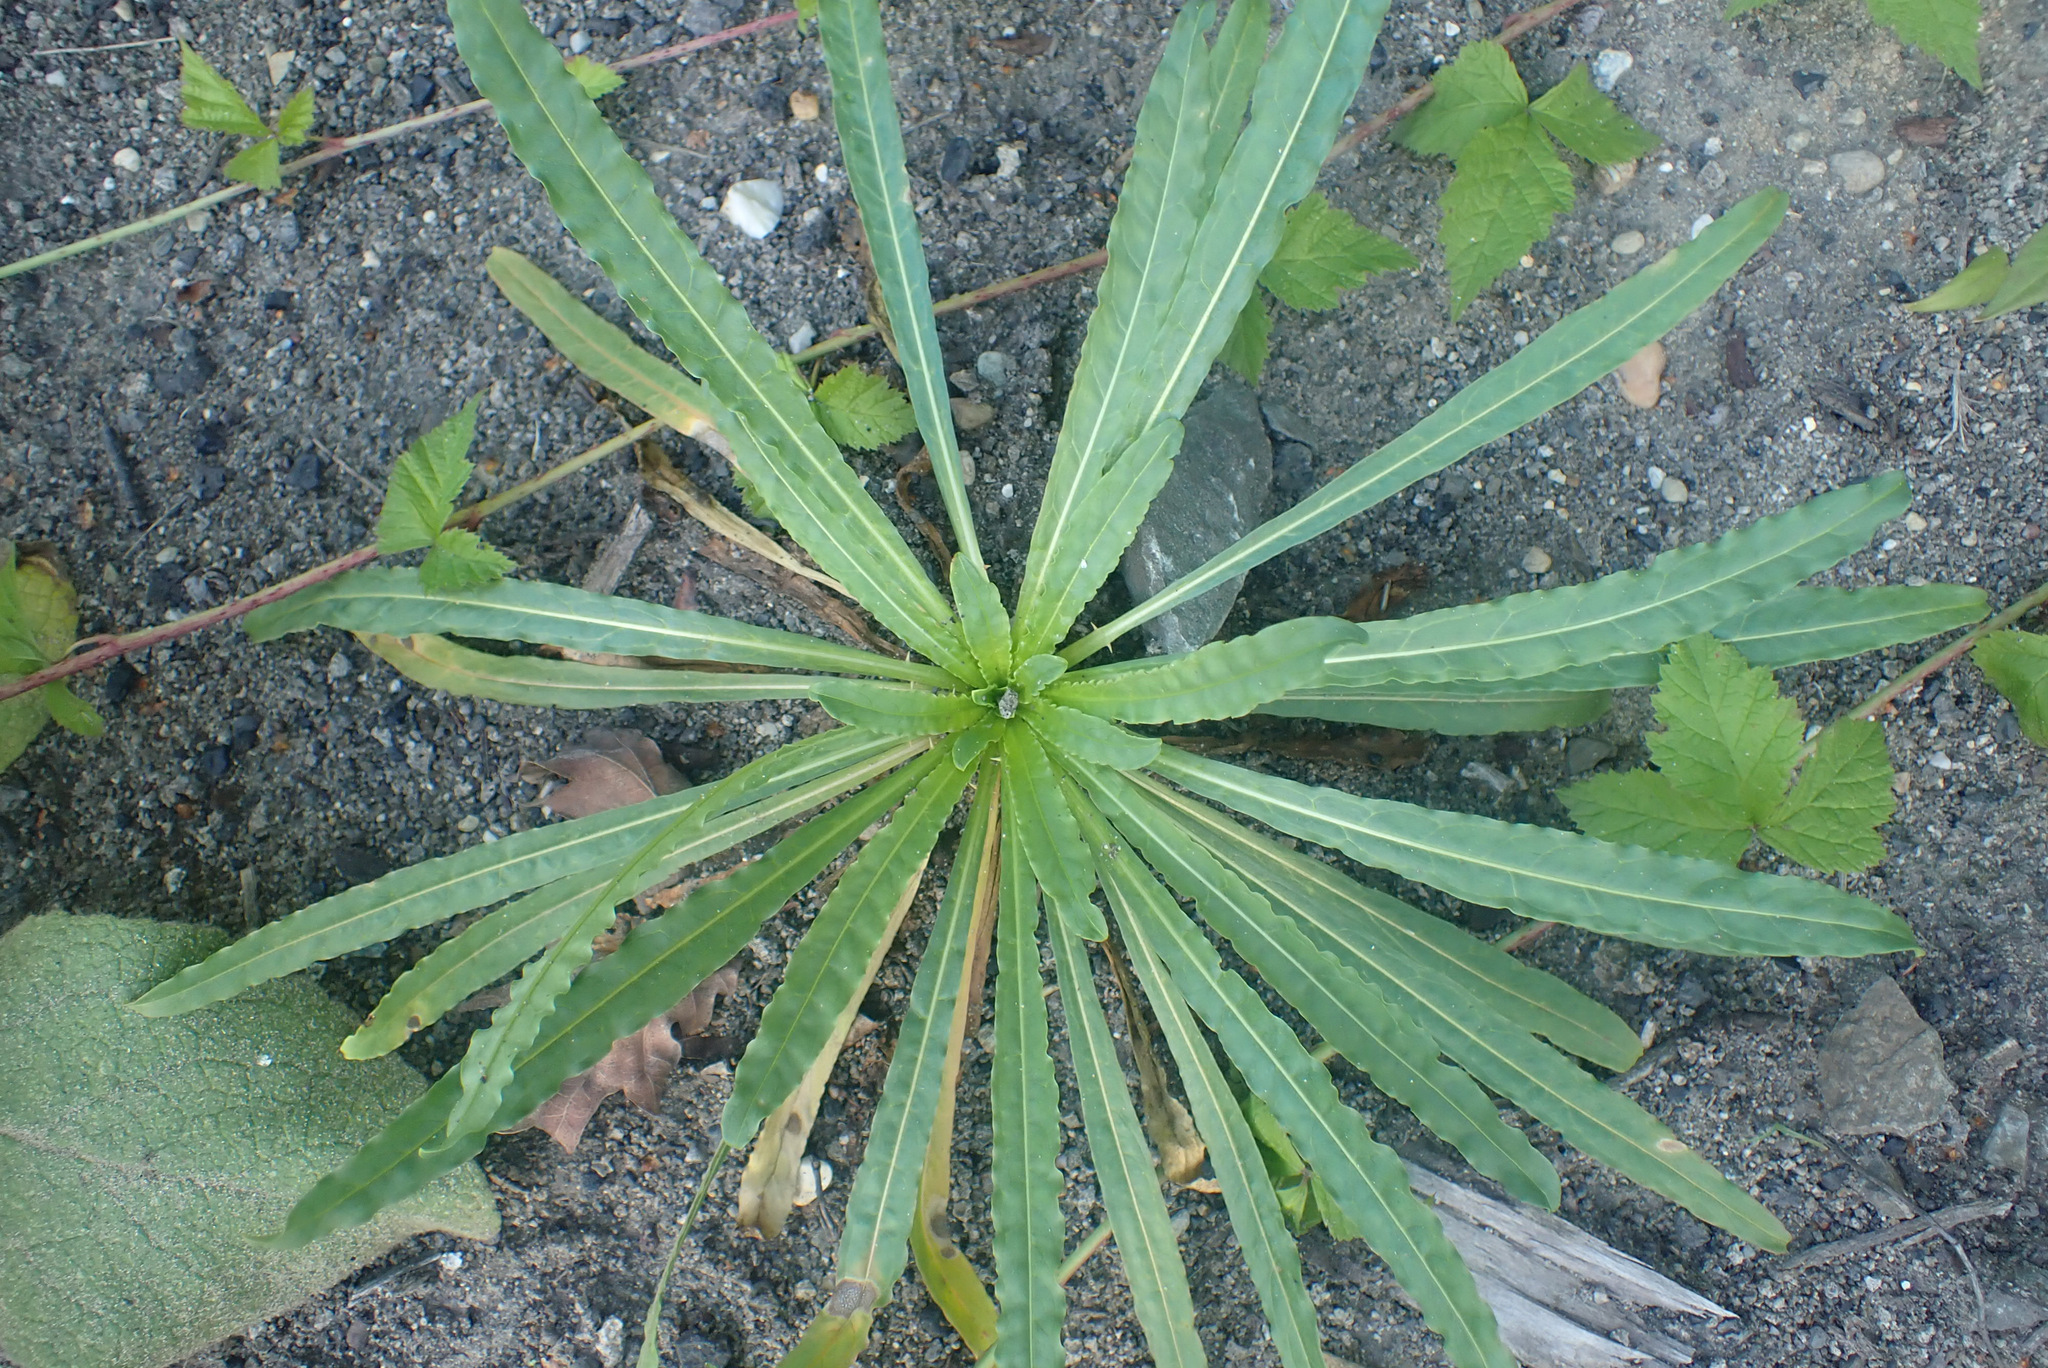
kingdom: Plantae
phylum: Tracheophyta
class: Magnoliopsida
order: Brassicales
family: Resedaceae
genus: Reseda
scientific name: Reseda luteola
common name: Weld
